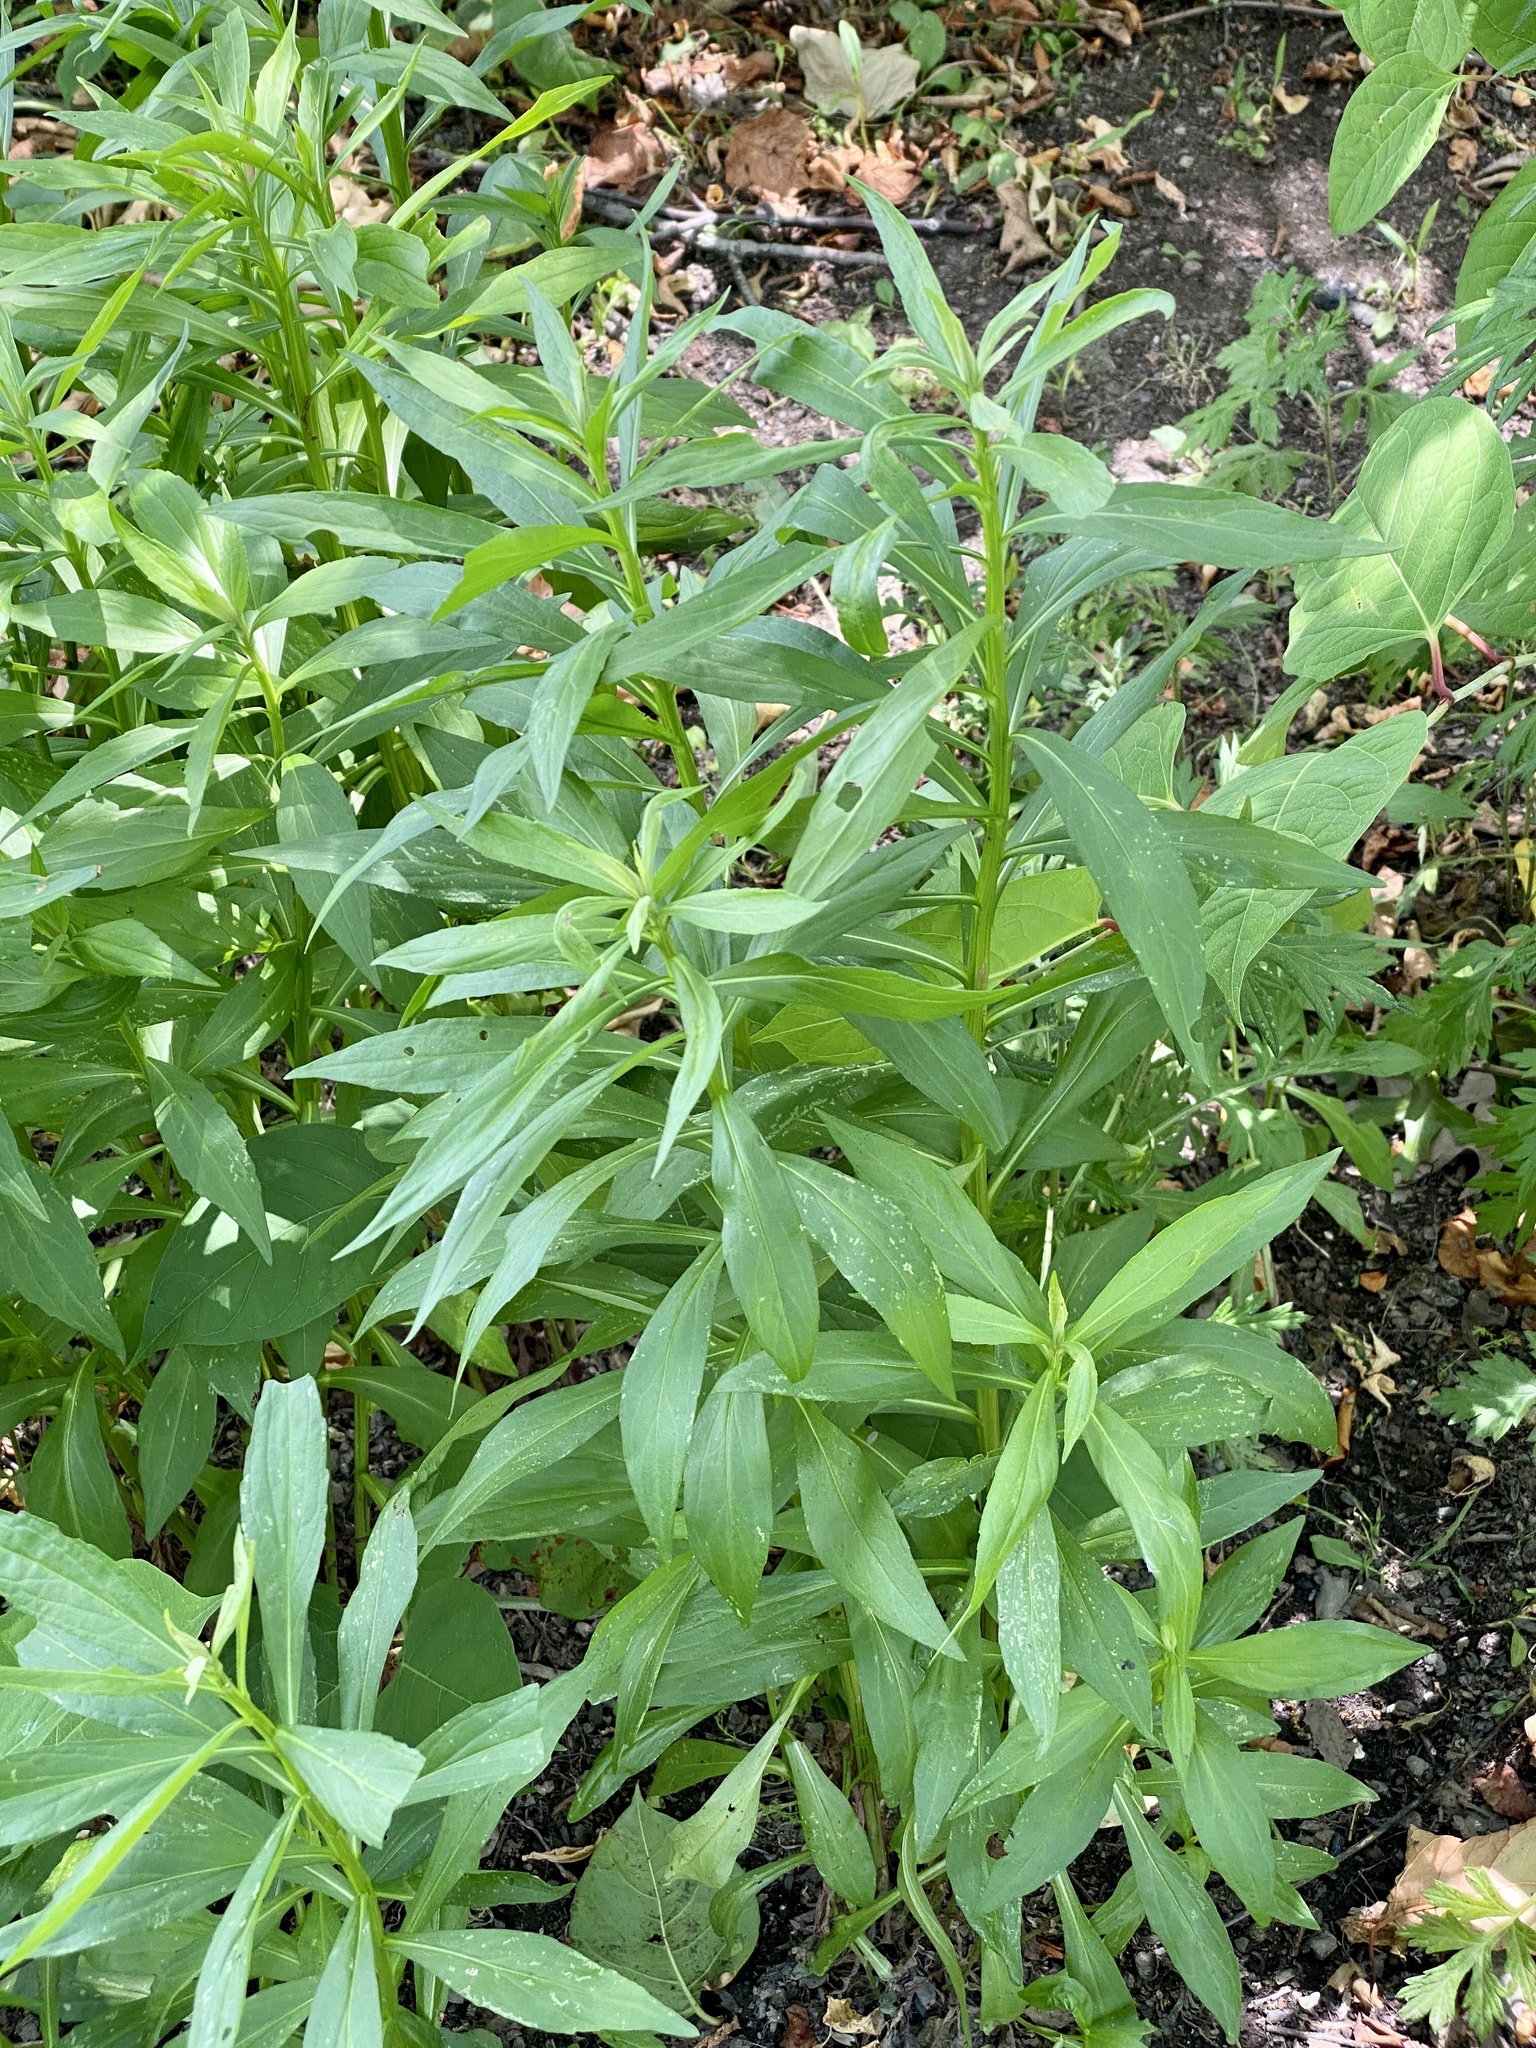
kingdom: Plantae
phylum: Tracheophyta
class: Magnoliopsida
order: Asterales
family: Asteraceae
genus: Helenium
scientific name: Helenium autumnale
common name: Sneezeweed
